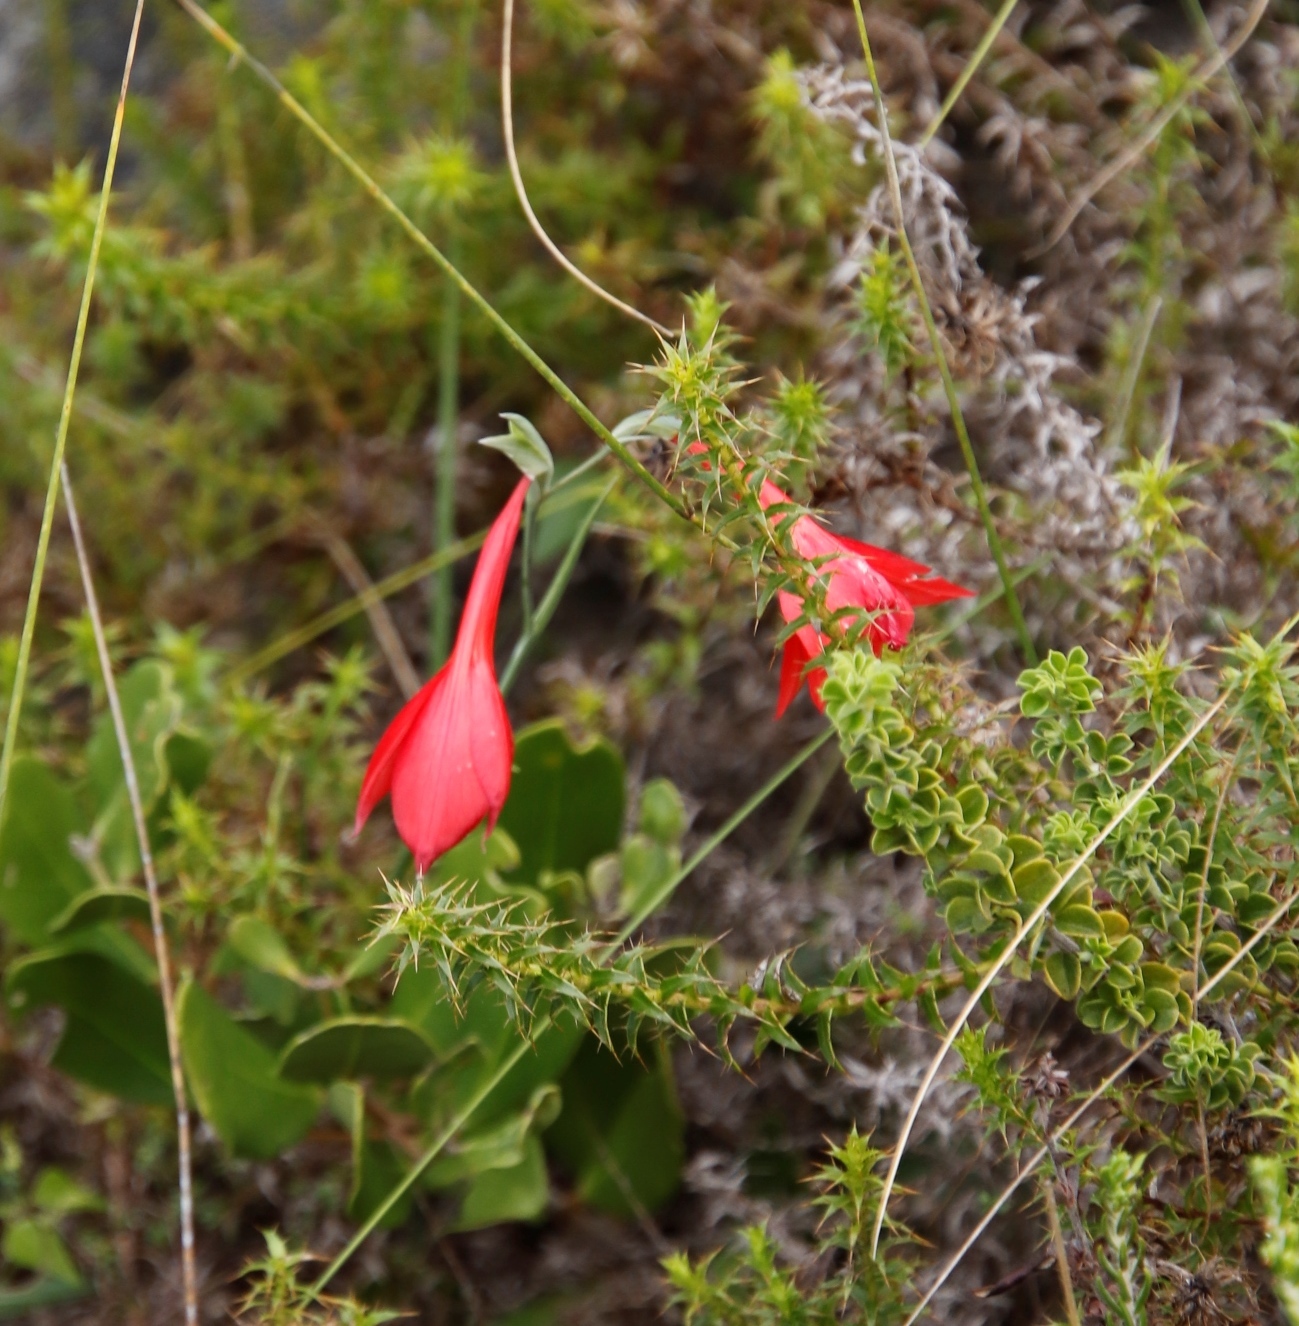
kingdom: Plantae
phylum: Tracheophyta
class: Magnoliopsida
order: Asterales
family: Asteraceae
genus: Cullumia
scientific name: Cullumia setosa
